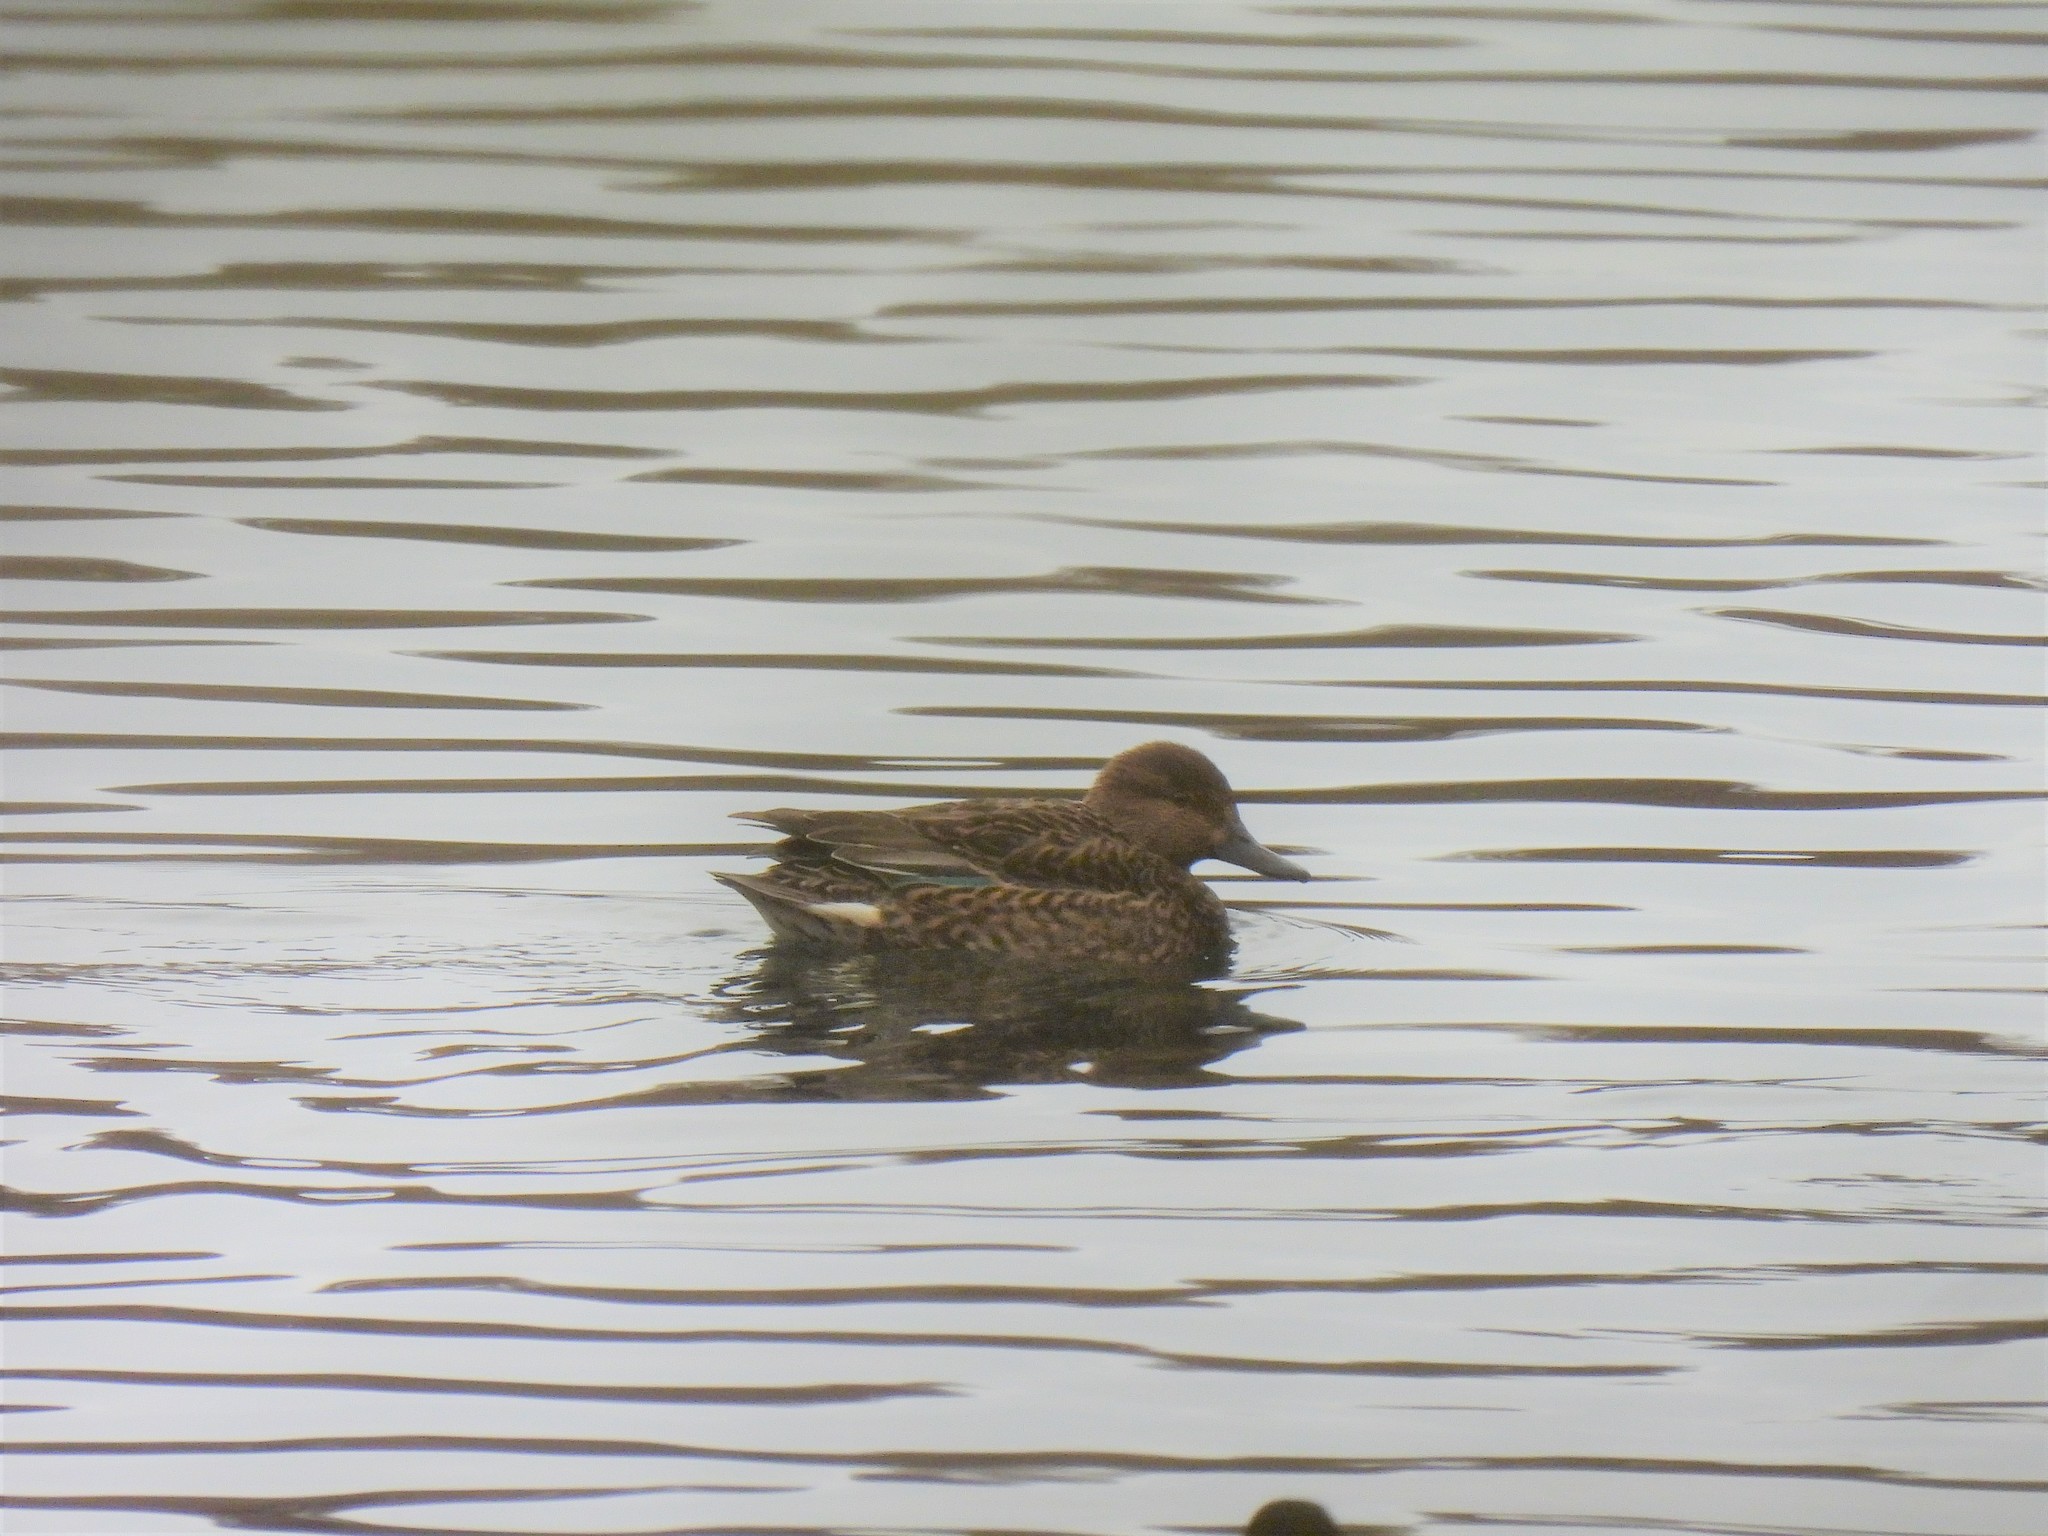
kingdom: Animalia
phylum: Chordata
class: Aves
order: Anseriformes
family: Anatidae
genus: Anas
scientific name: Anas crecca
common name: Eurasian teal
